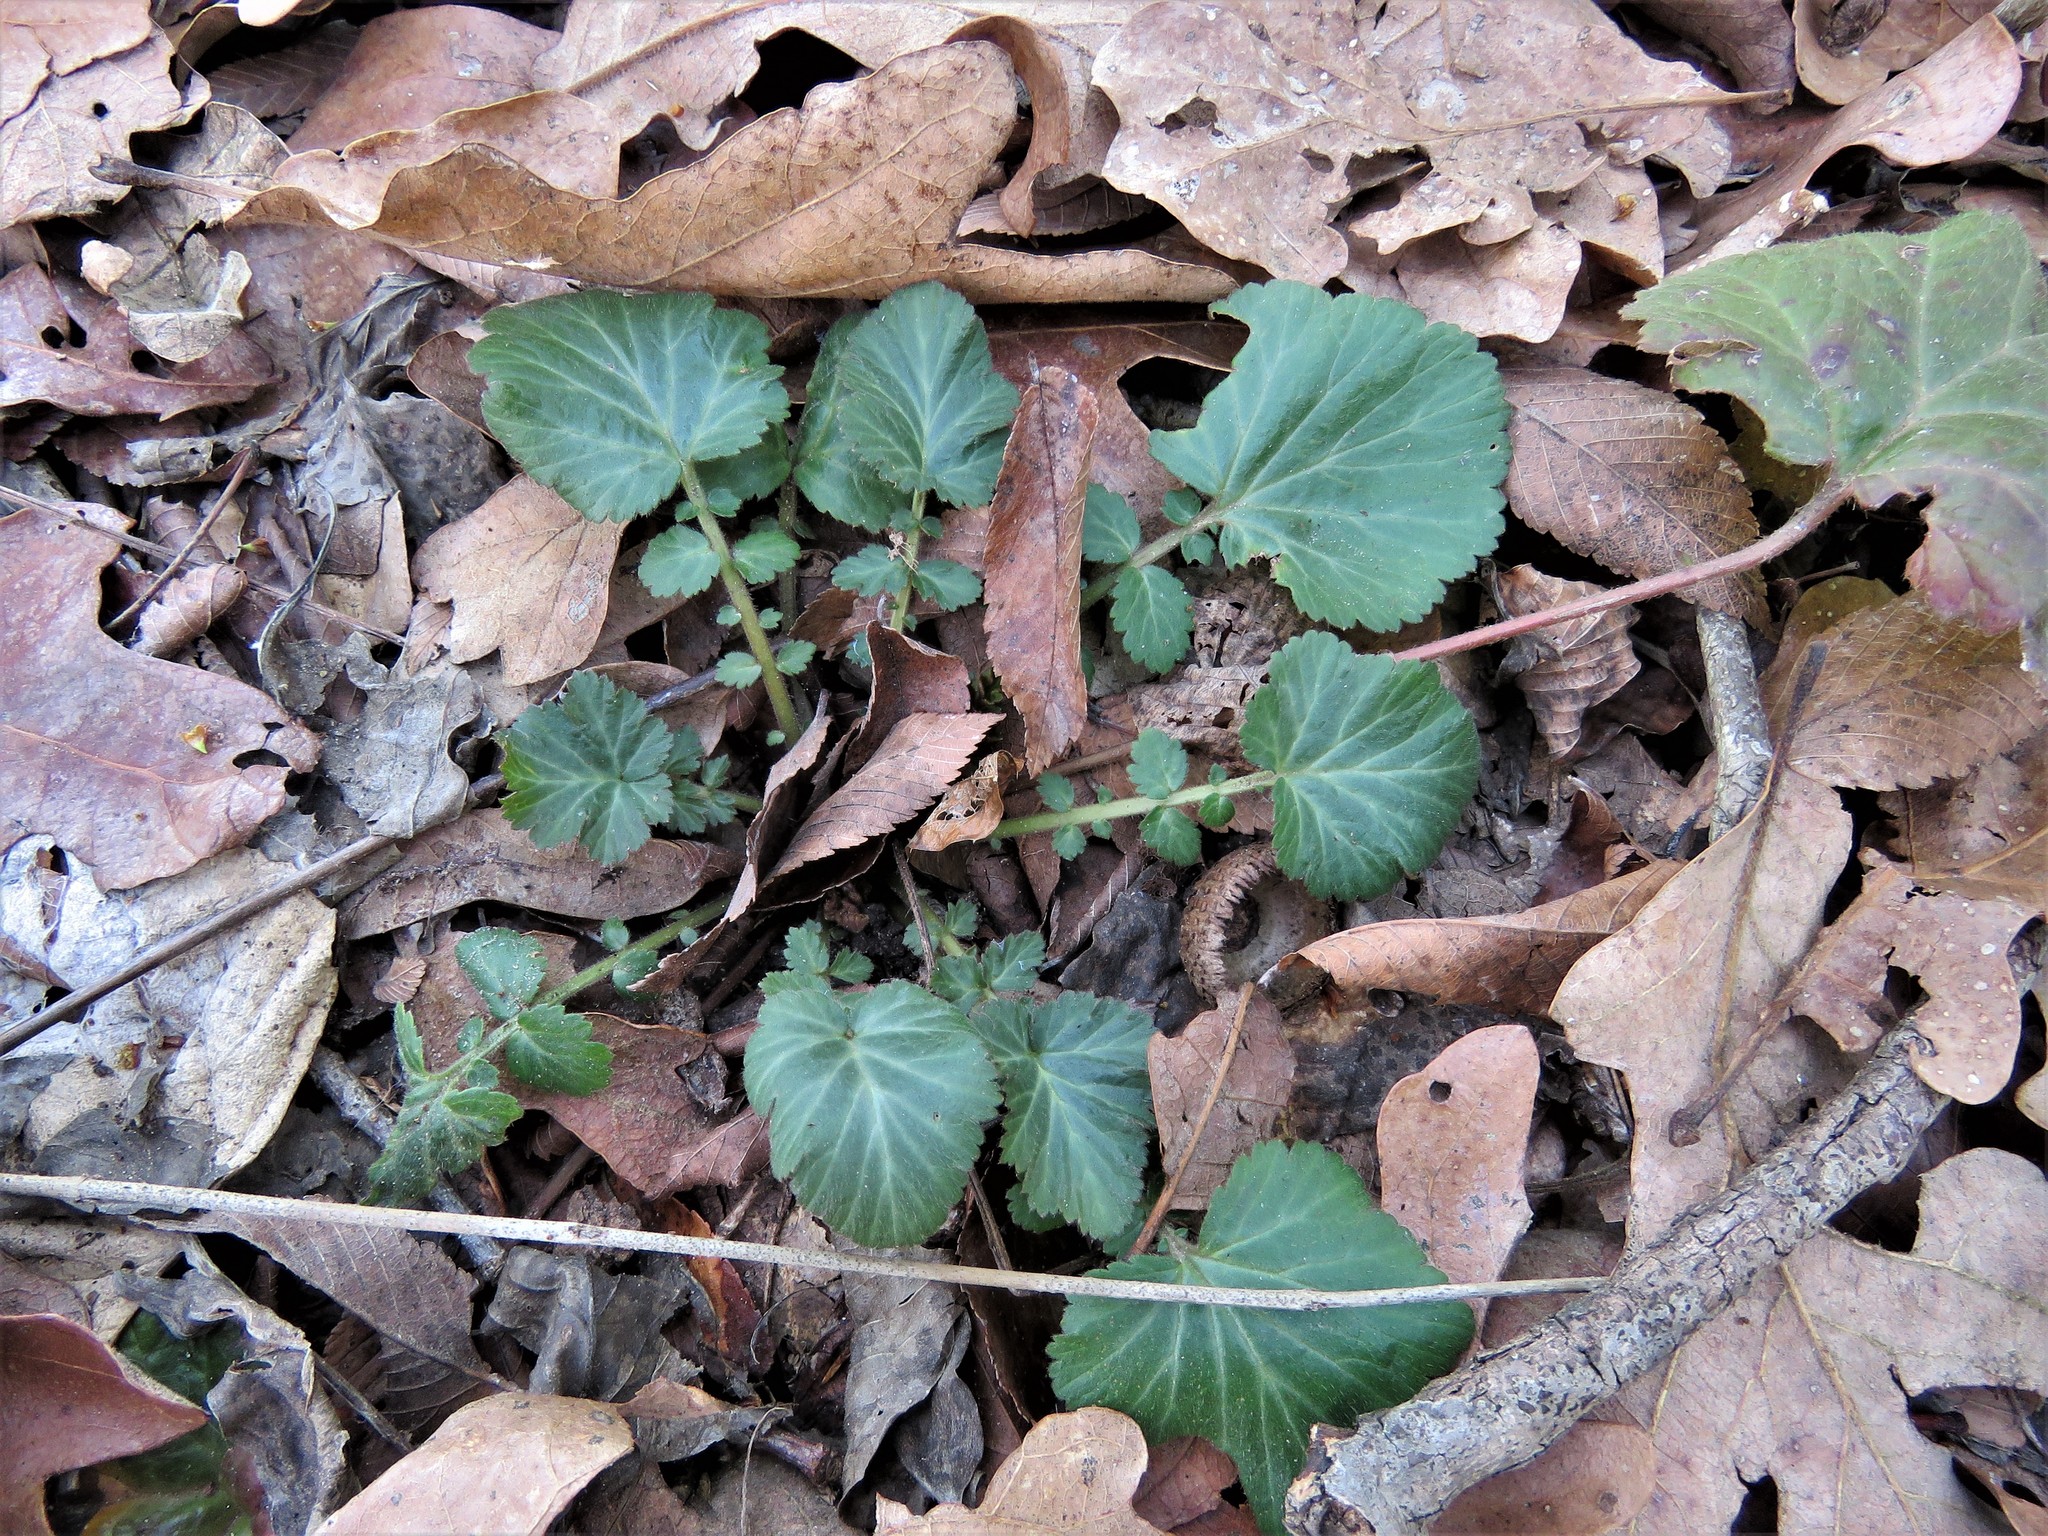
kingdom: Plantae
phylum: Tracheophyta
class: Magnoliopsida
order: Rosales
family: Rosaceae
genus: Geum
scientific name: Geum canadense
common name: White avens
